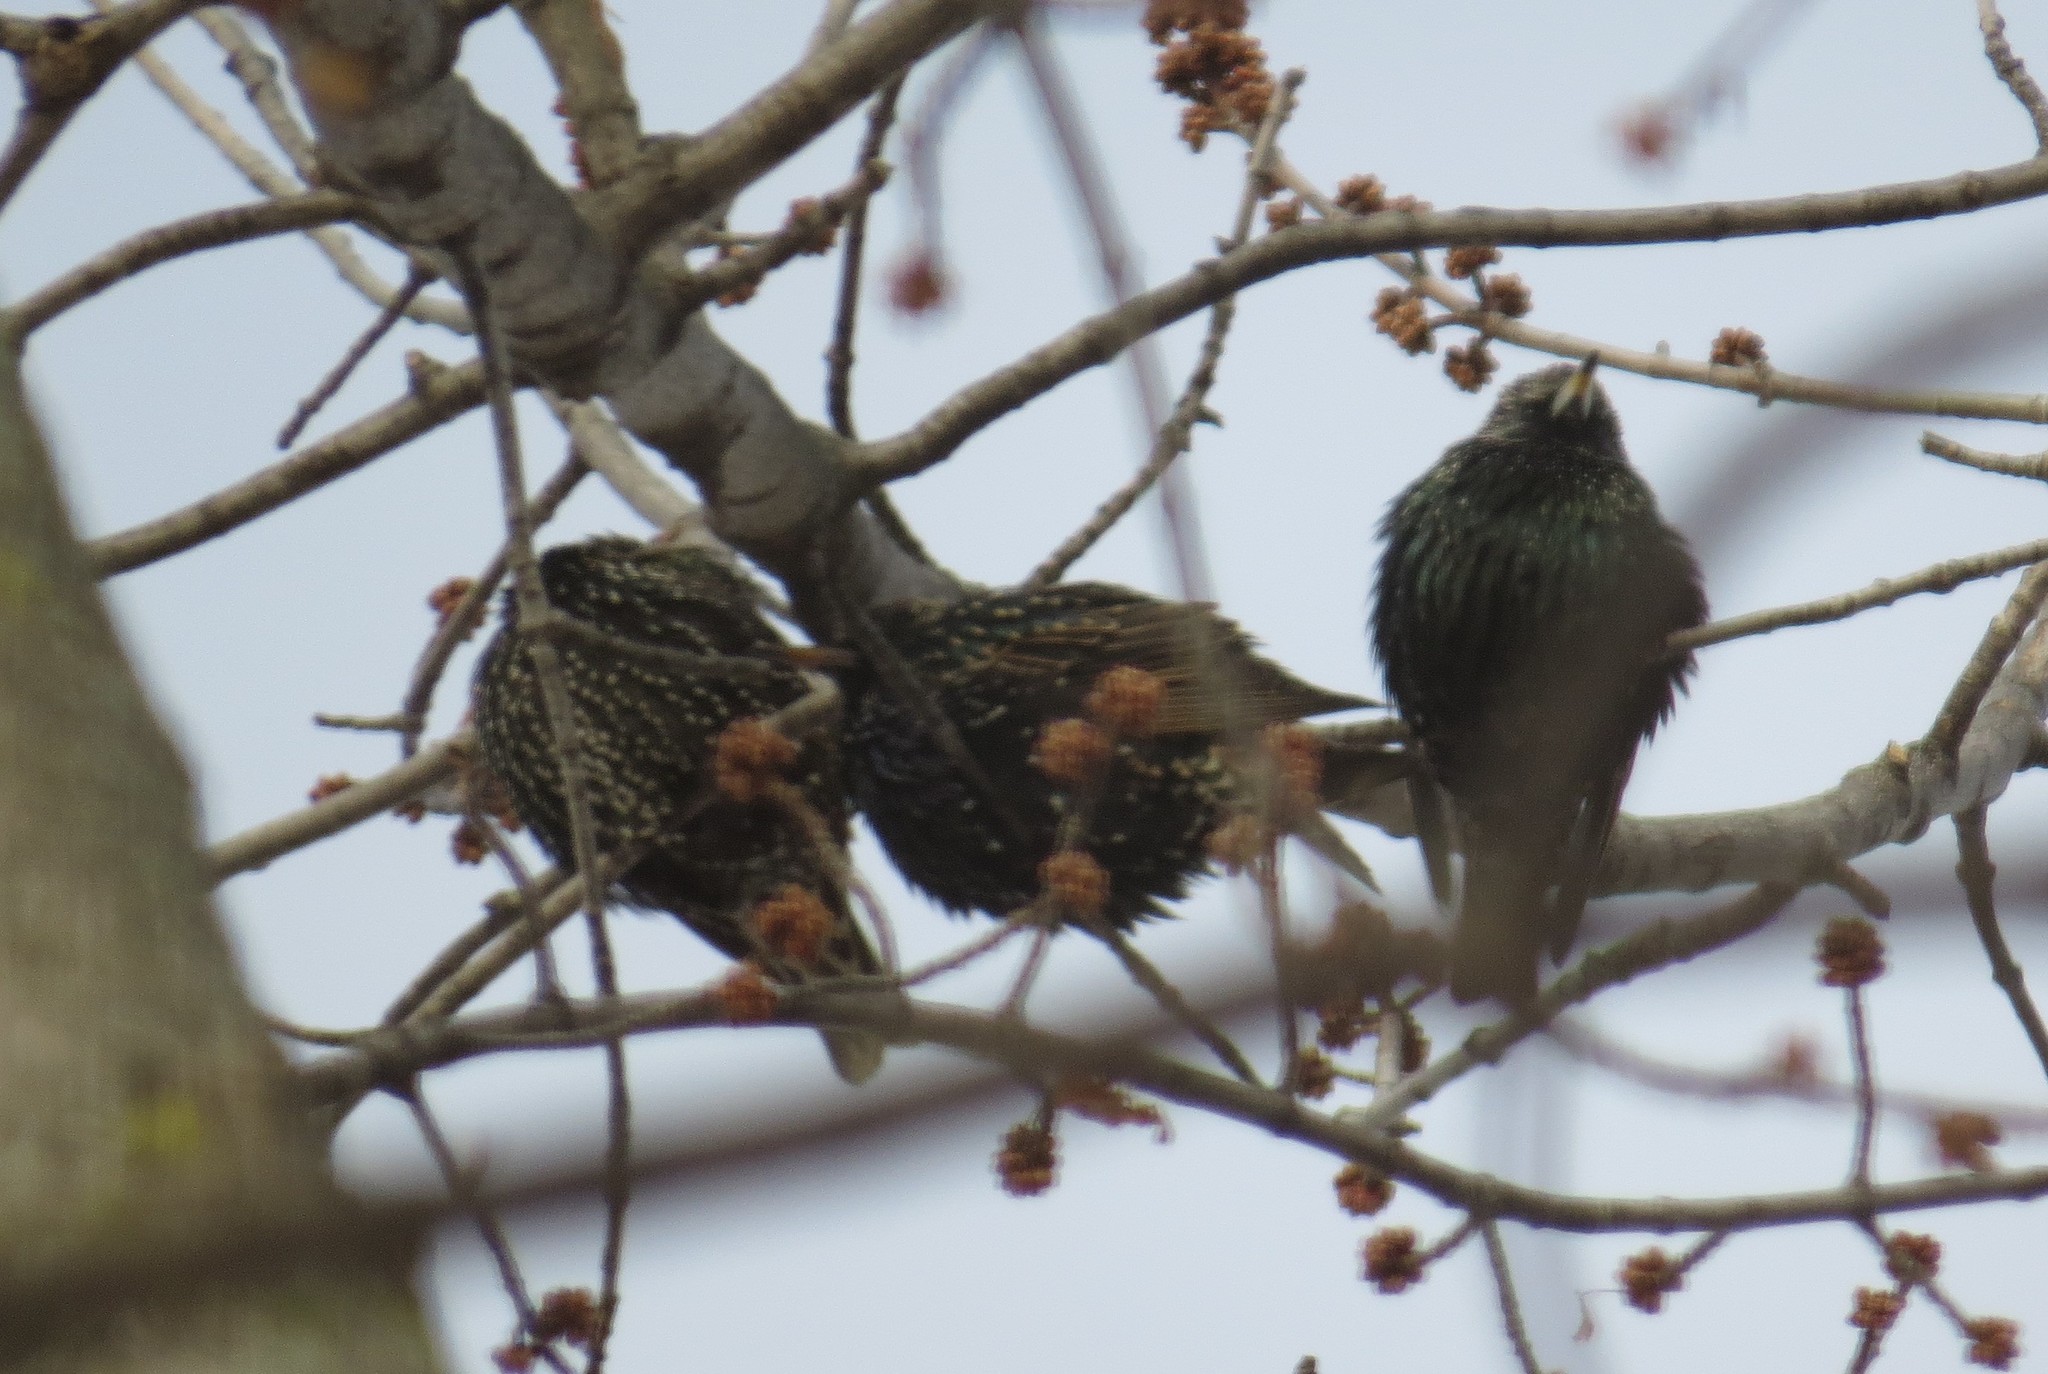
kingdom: Animalia
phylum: Chordata
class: Aves
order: Passeriformes
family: Sturnidae
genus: Sturnus
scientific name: Sturnus vulgaris
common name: Common starling
